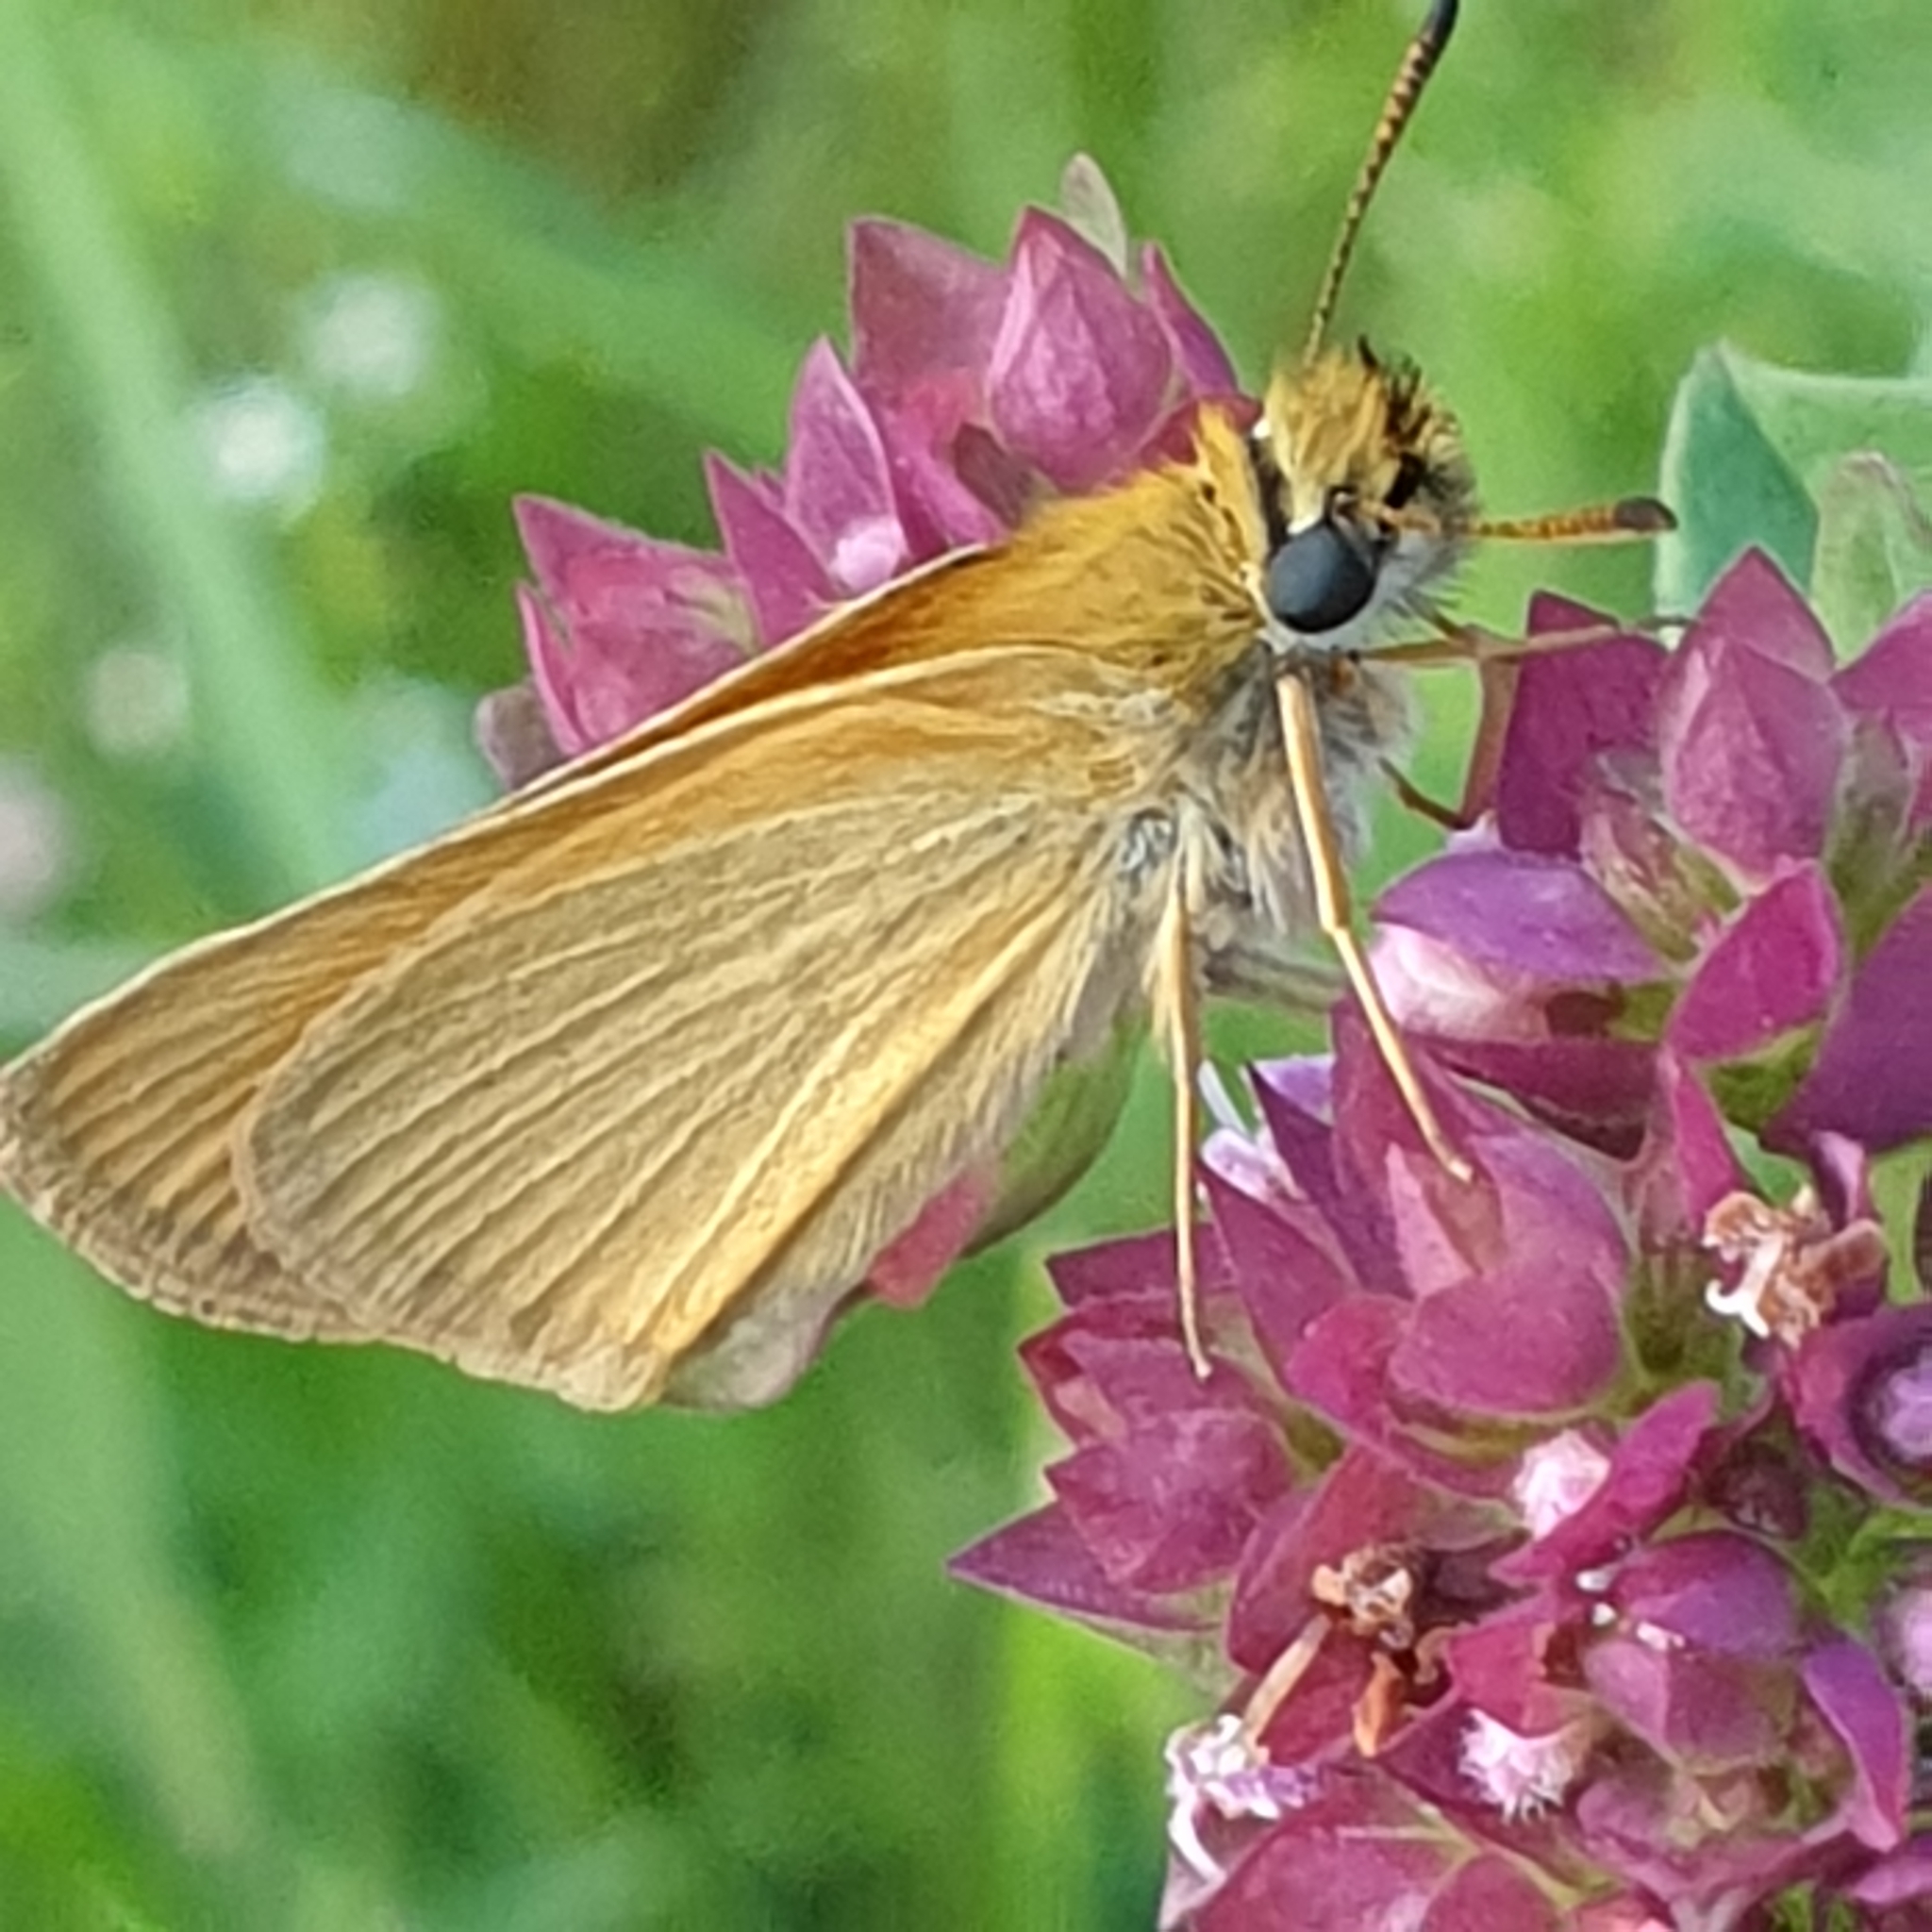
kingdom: Animalia
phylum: Arthropoda
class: Insecta
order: Lepidoptera
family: Hesperiidae
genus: Thymelicus
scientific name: Thymelicus lineola
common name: Essex skipper
